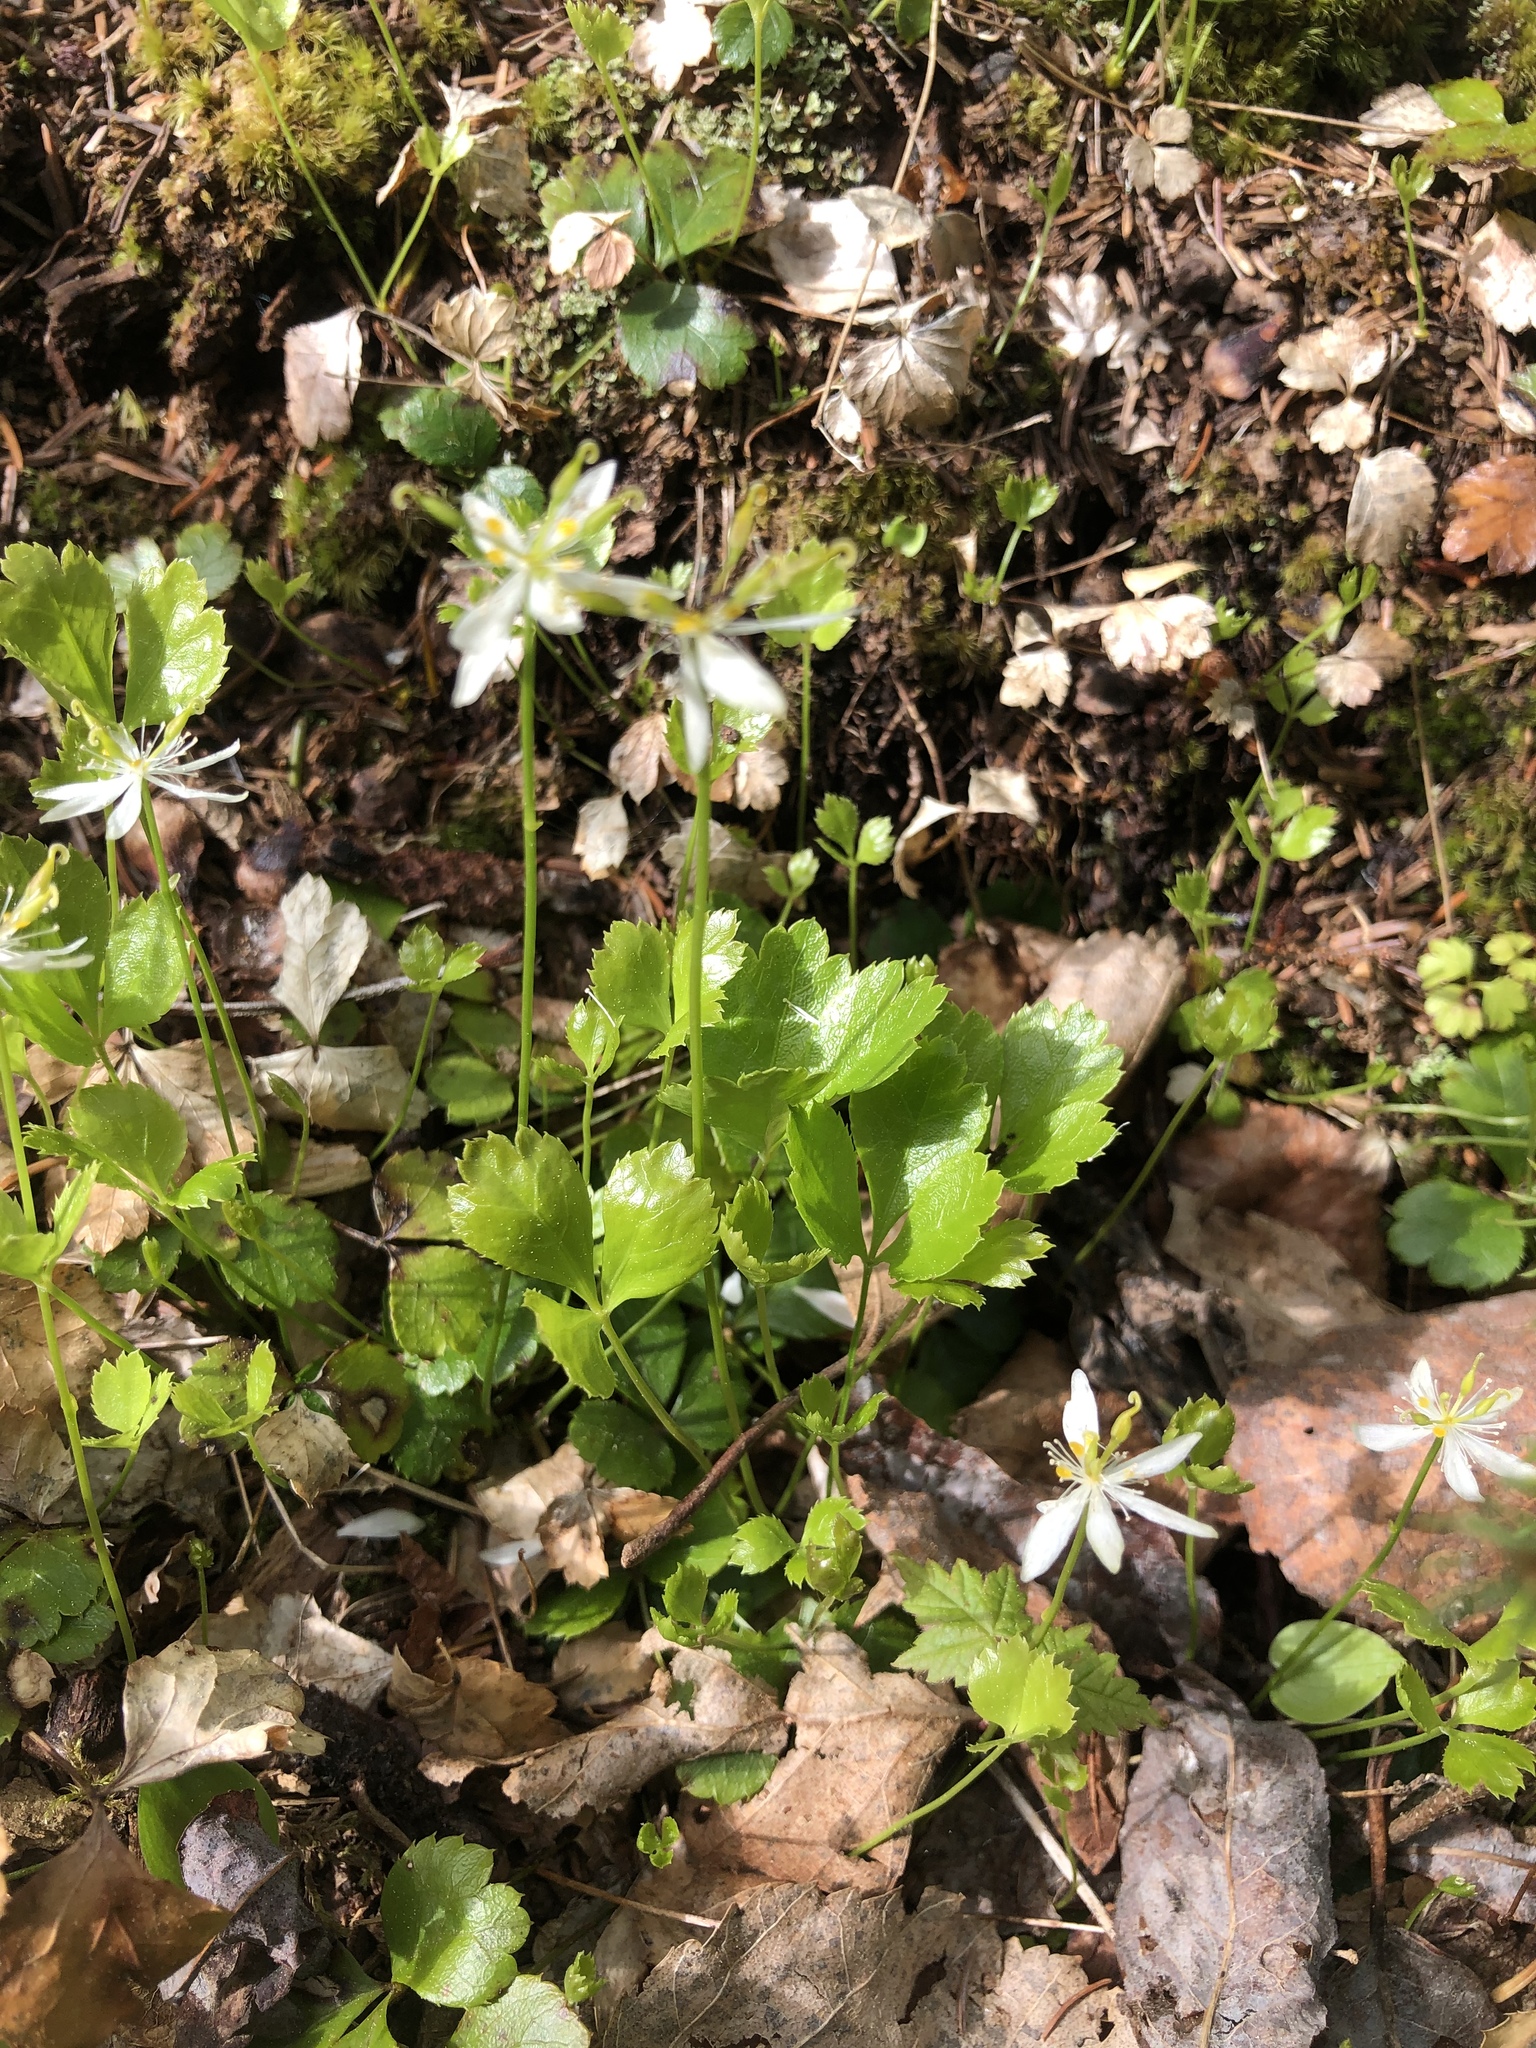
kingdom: Plantae
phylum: Tracheophyta
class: Magnoliopsida
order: Ranunculales
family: Ranunculaceae
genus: Coptis
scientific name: Coptis trifolia
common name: Canker-root
